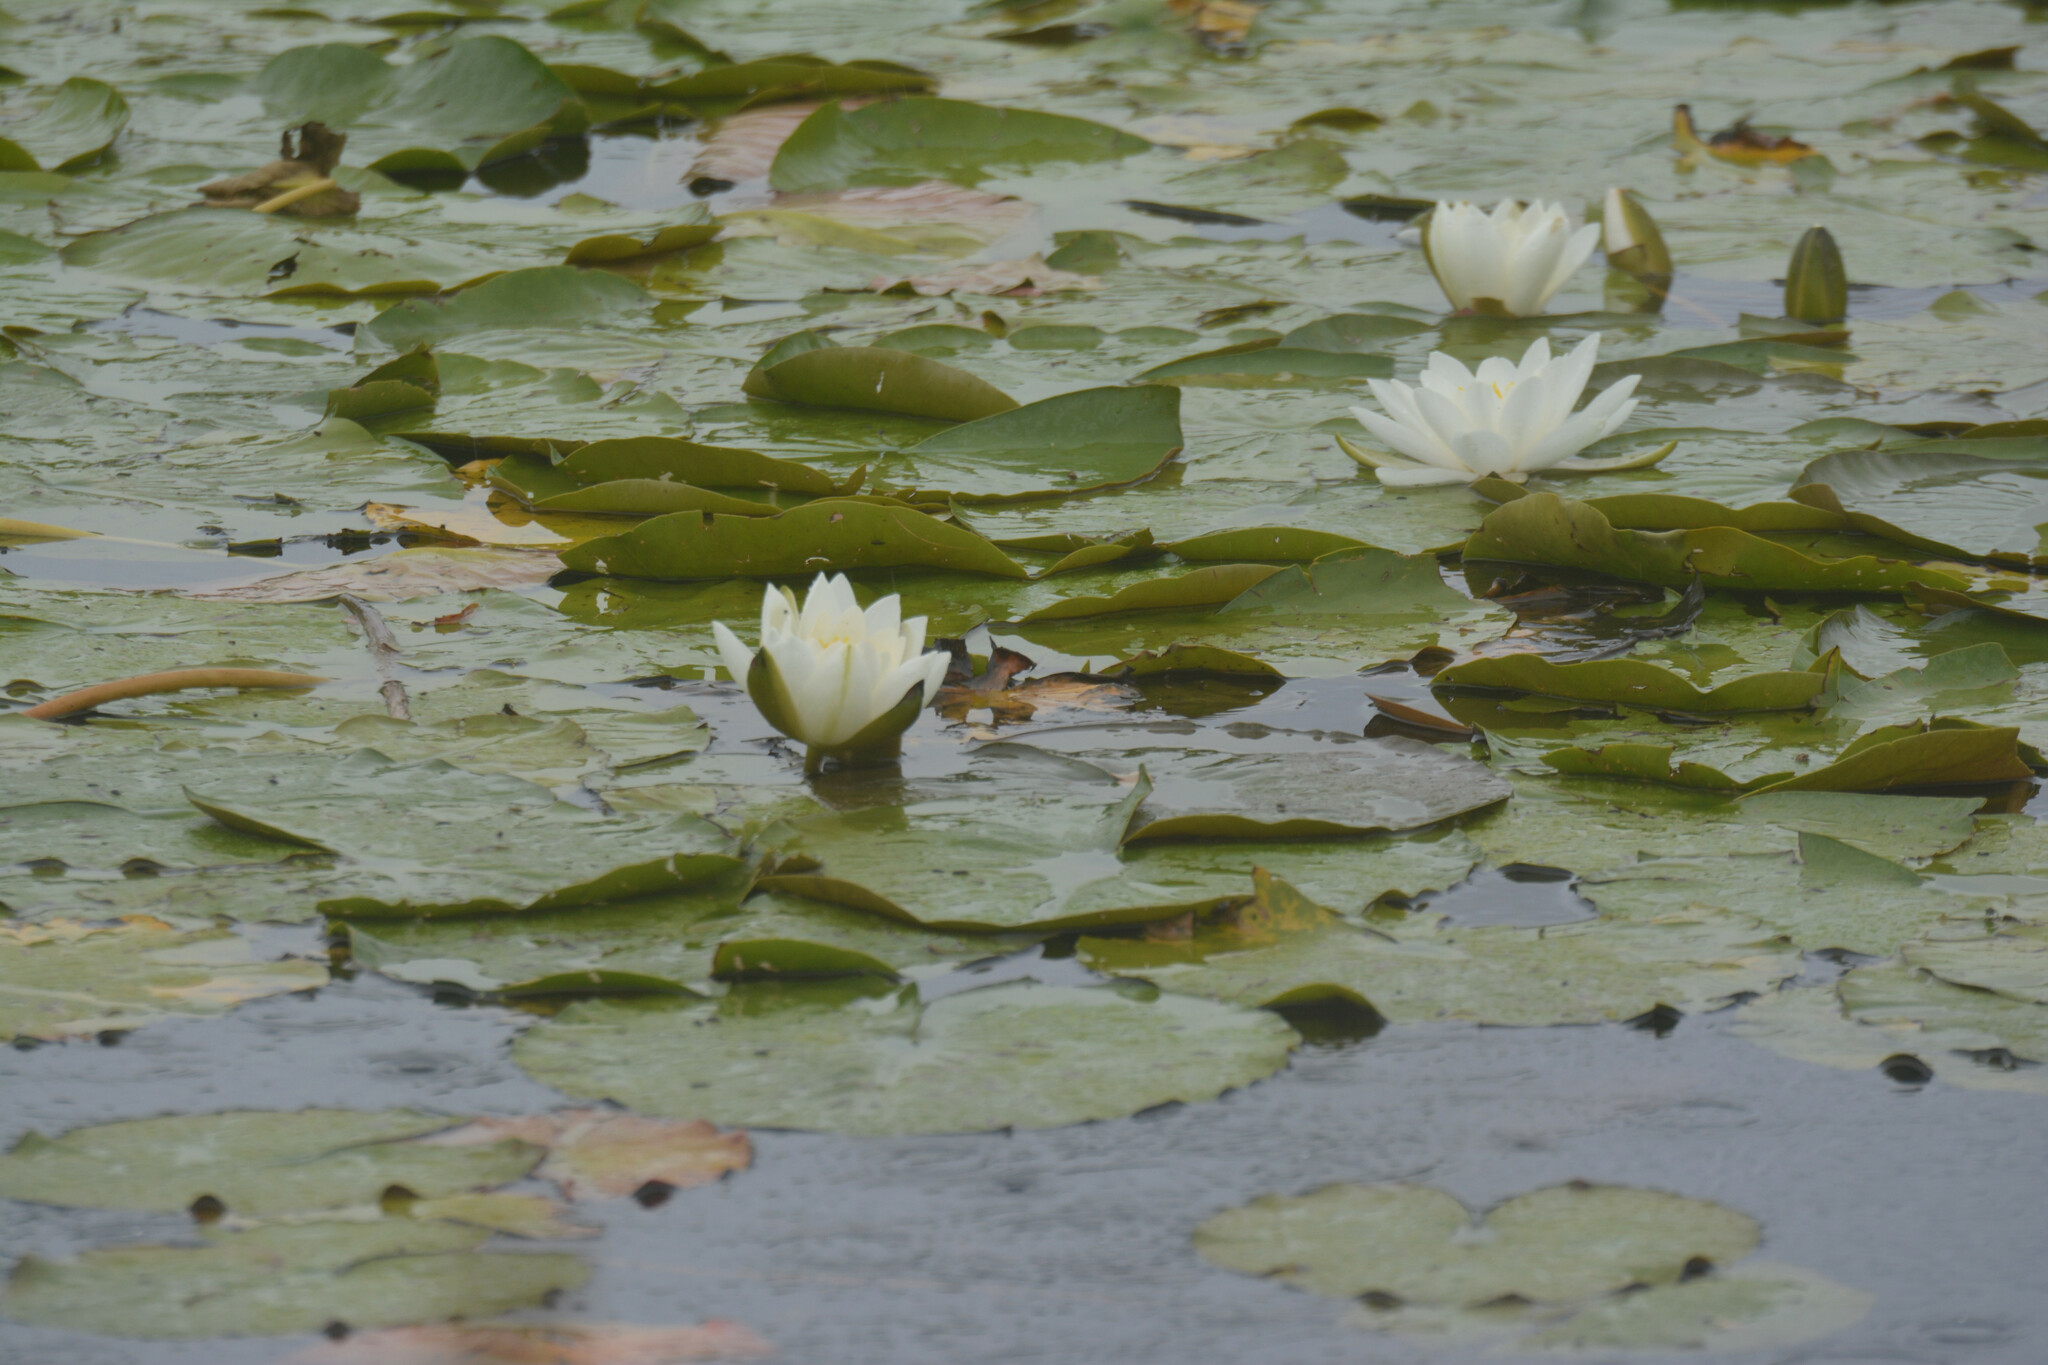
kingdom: Plantae
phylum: Tracheophyta
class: Magnoliopsida
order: Nymphaeales
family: Nymphaeaceae
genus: Nymphaea
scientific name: Nymphaea alba
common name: White water-lily
